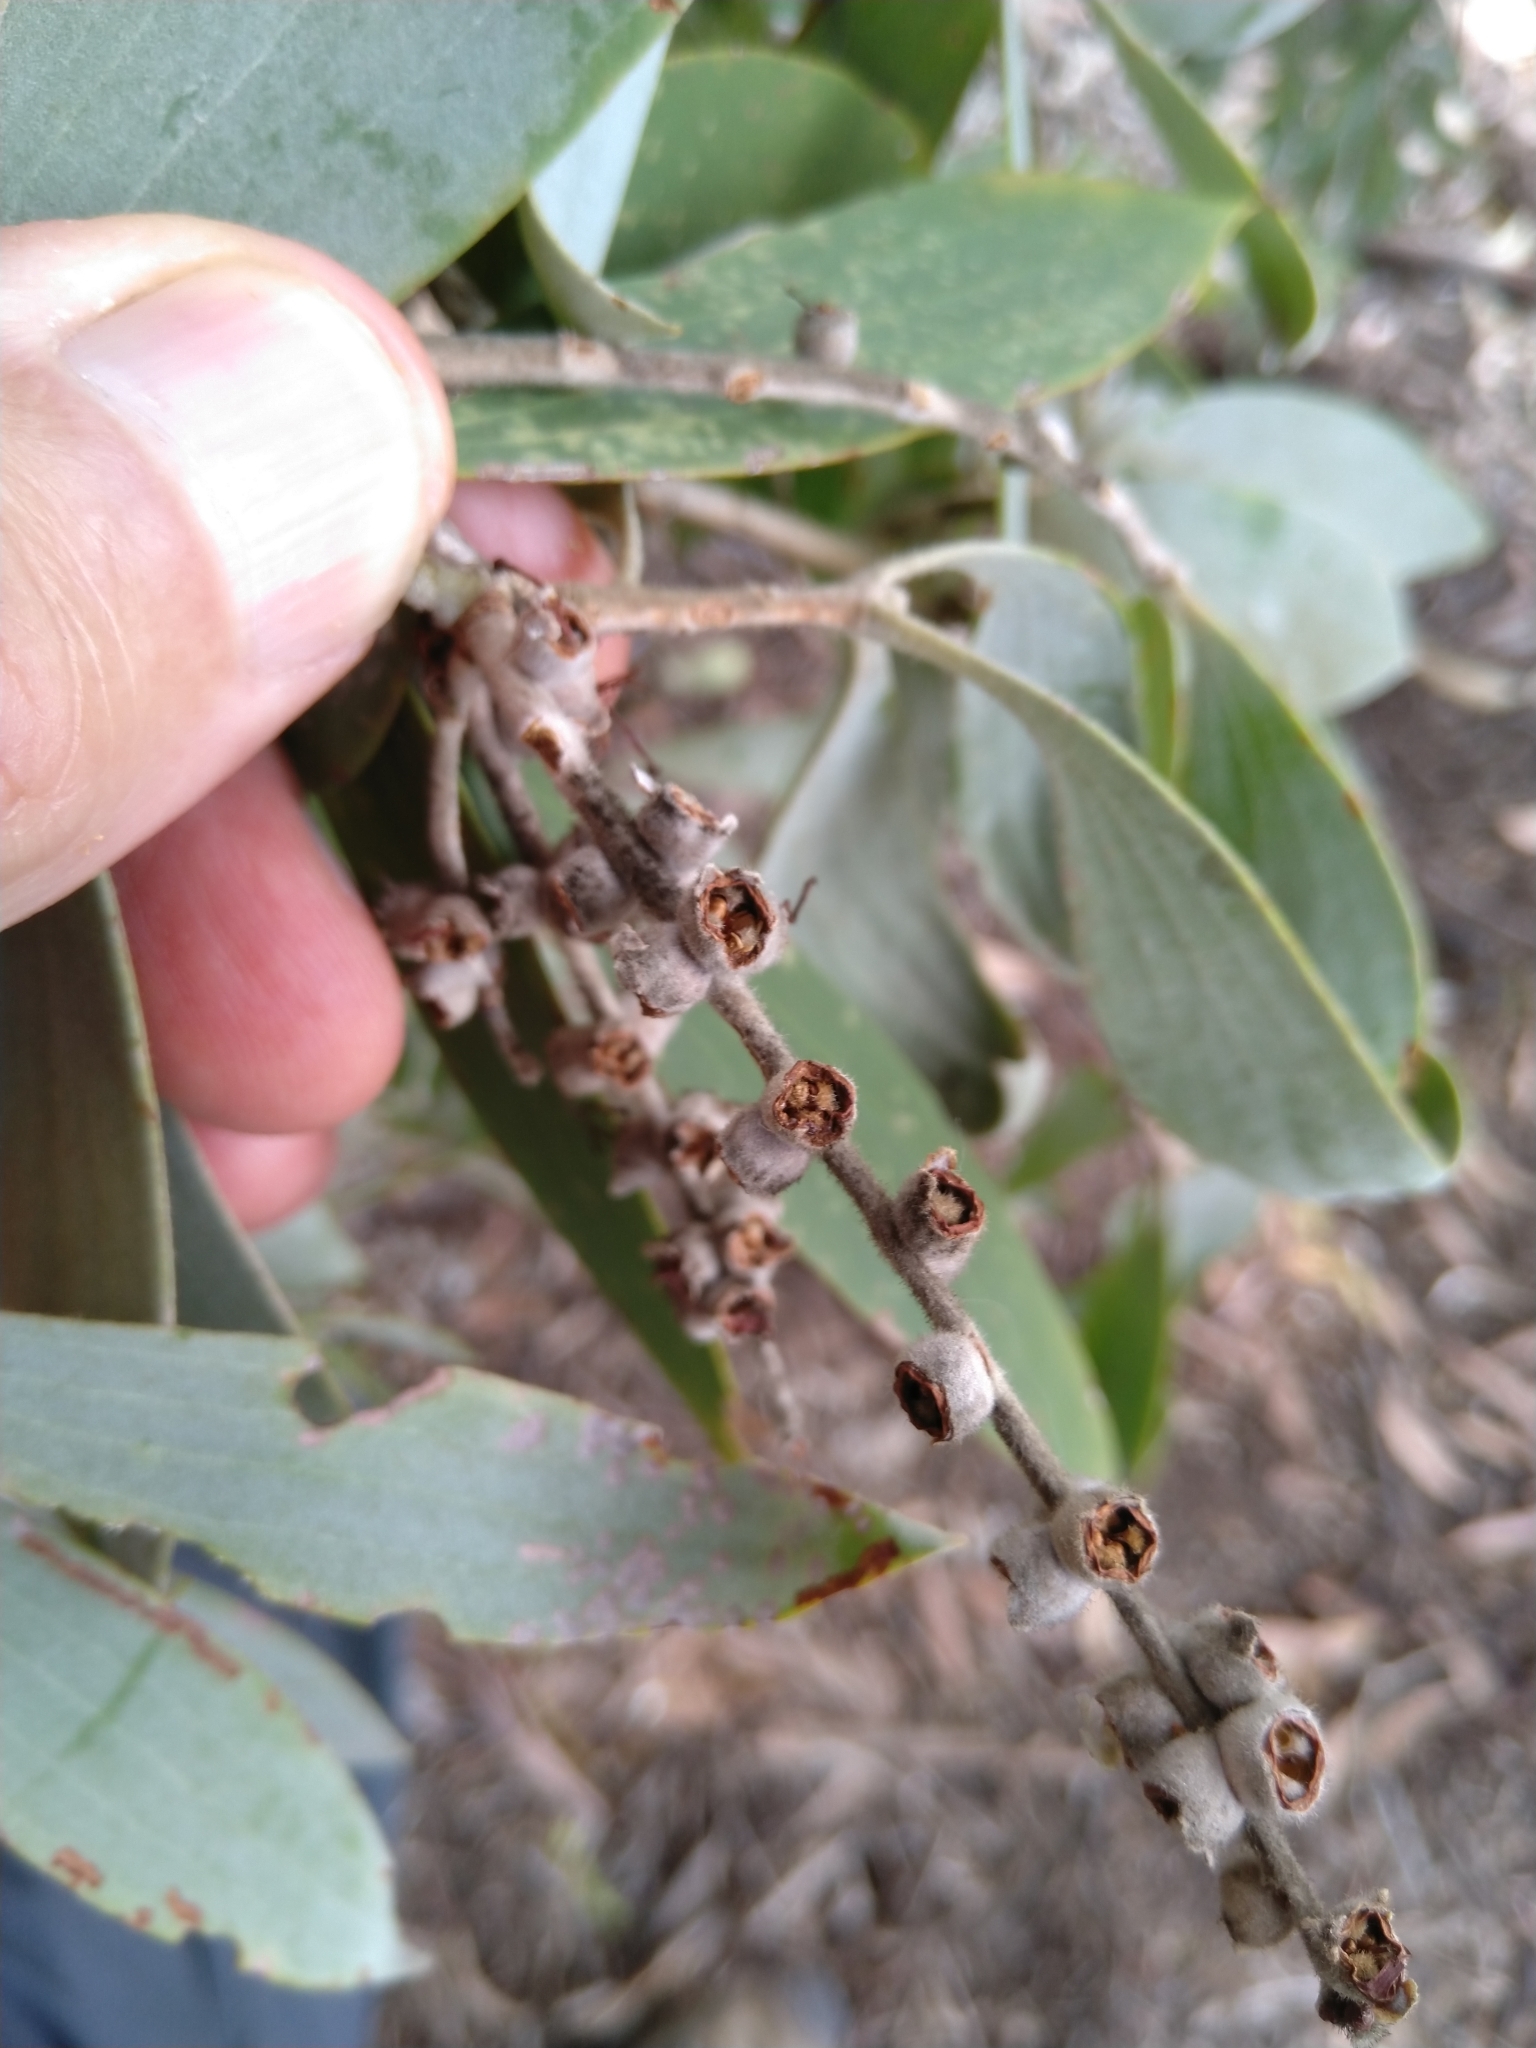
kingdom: Plantae
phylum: Tracheophyta
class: Magnoliopsida
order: Myrtales
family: Myrtaceae
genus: Melaleuca
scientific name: Melaleuca dealbata
